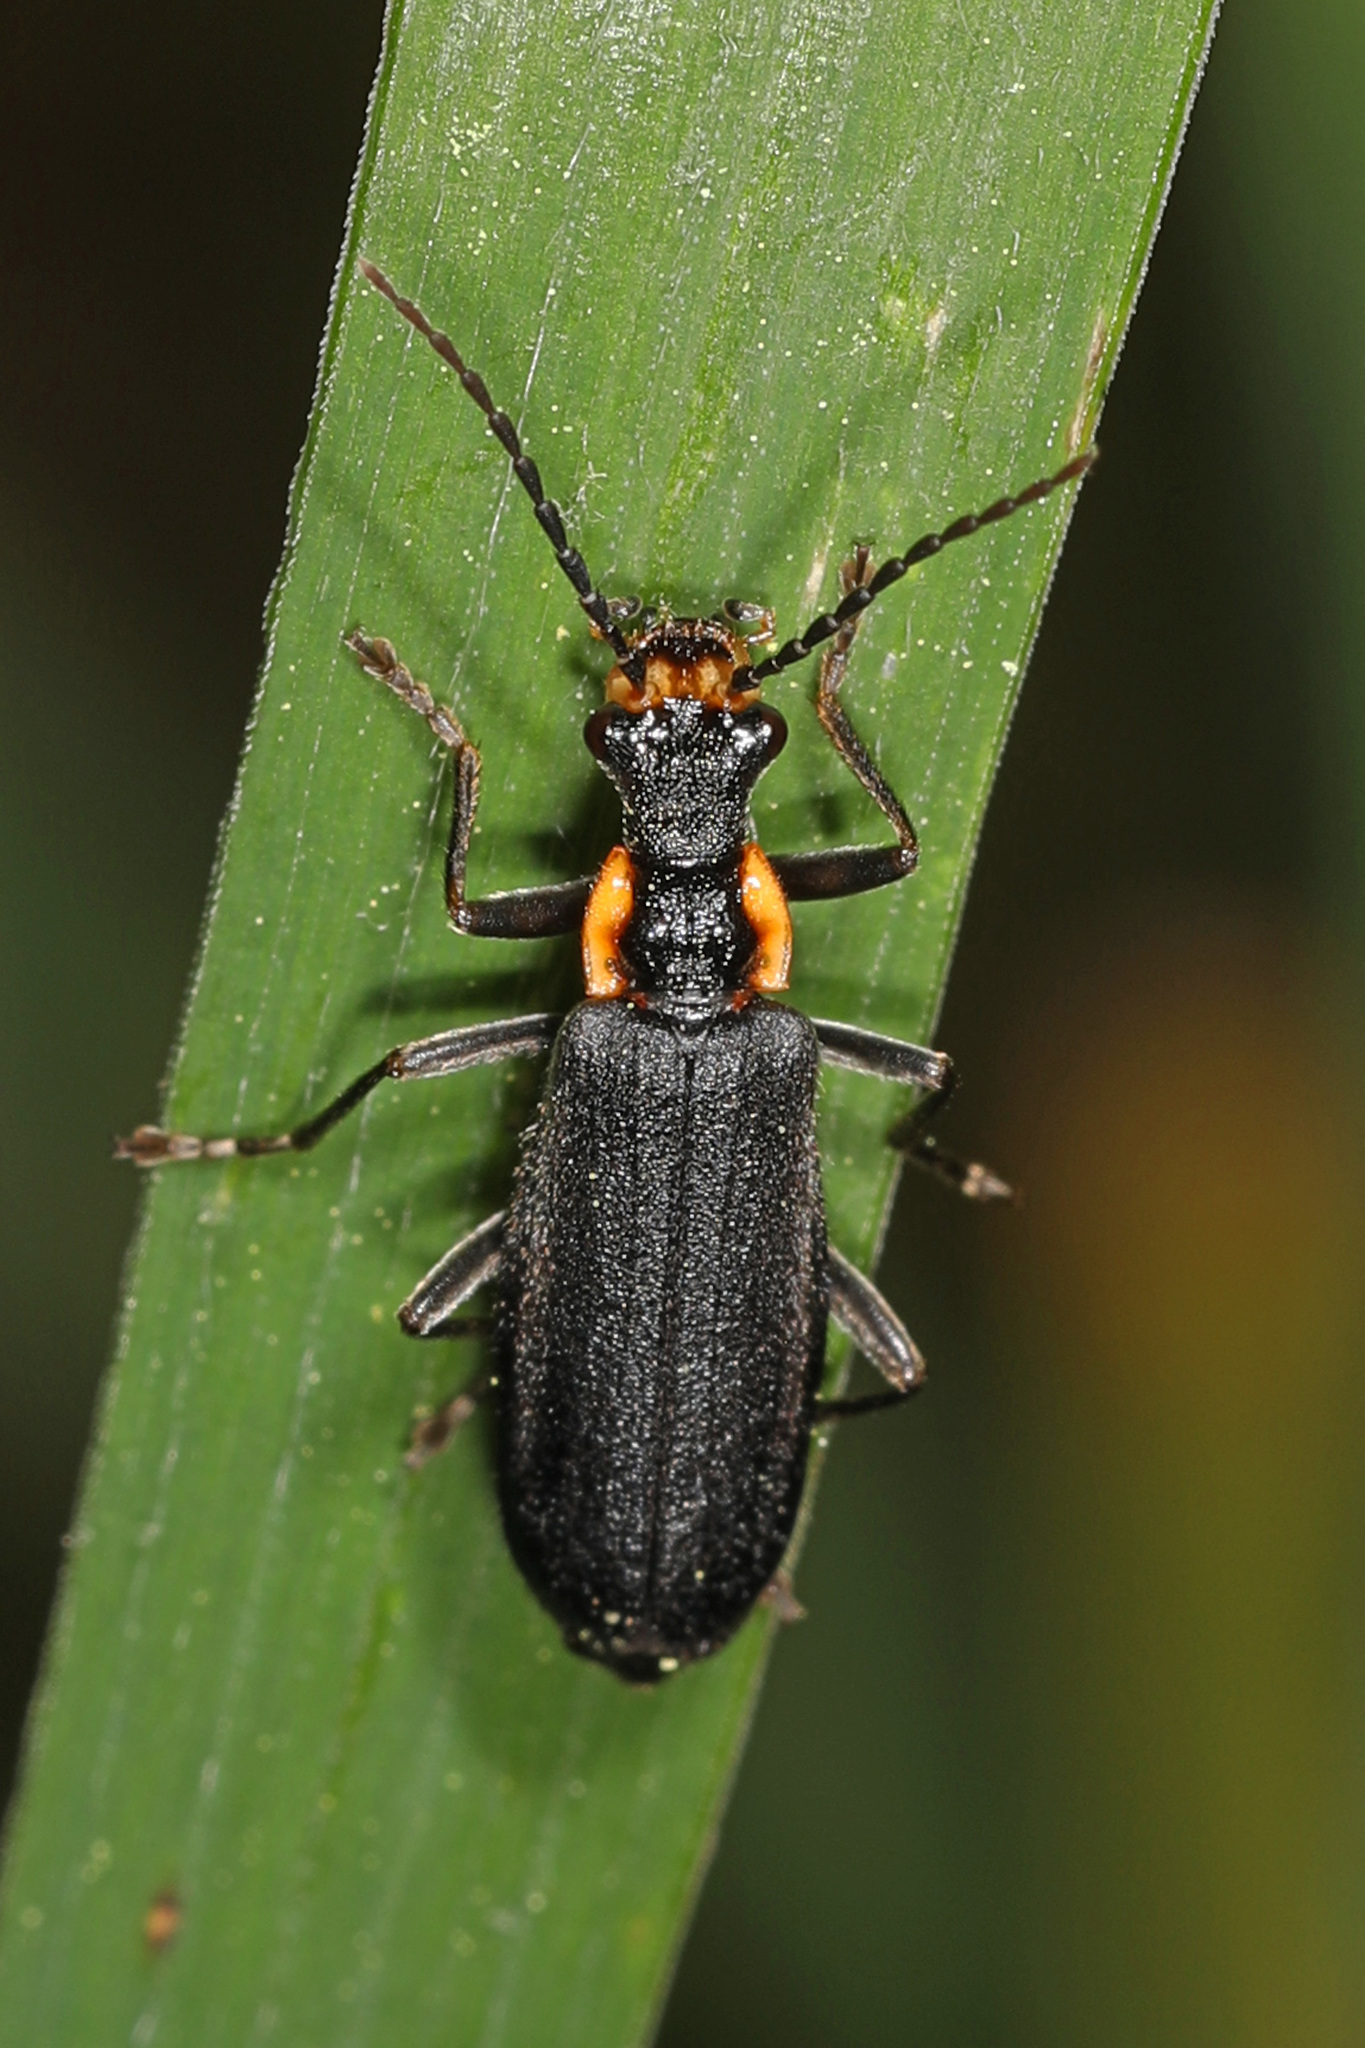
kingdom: Animalia
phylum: Arthropoda
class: Insecta
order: Coleoptera
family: Cantharidae
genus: Podabrus
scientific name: Podabrus rugosulus
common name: Wrinkled soldier beetle
